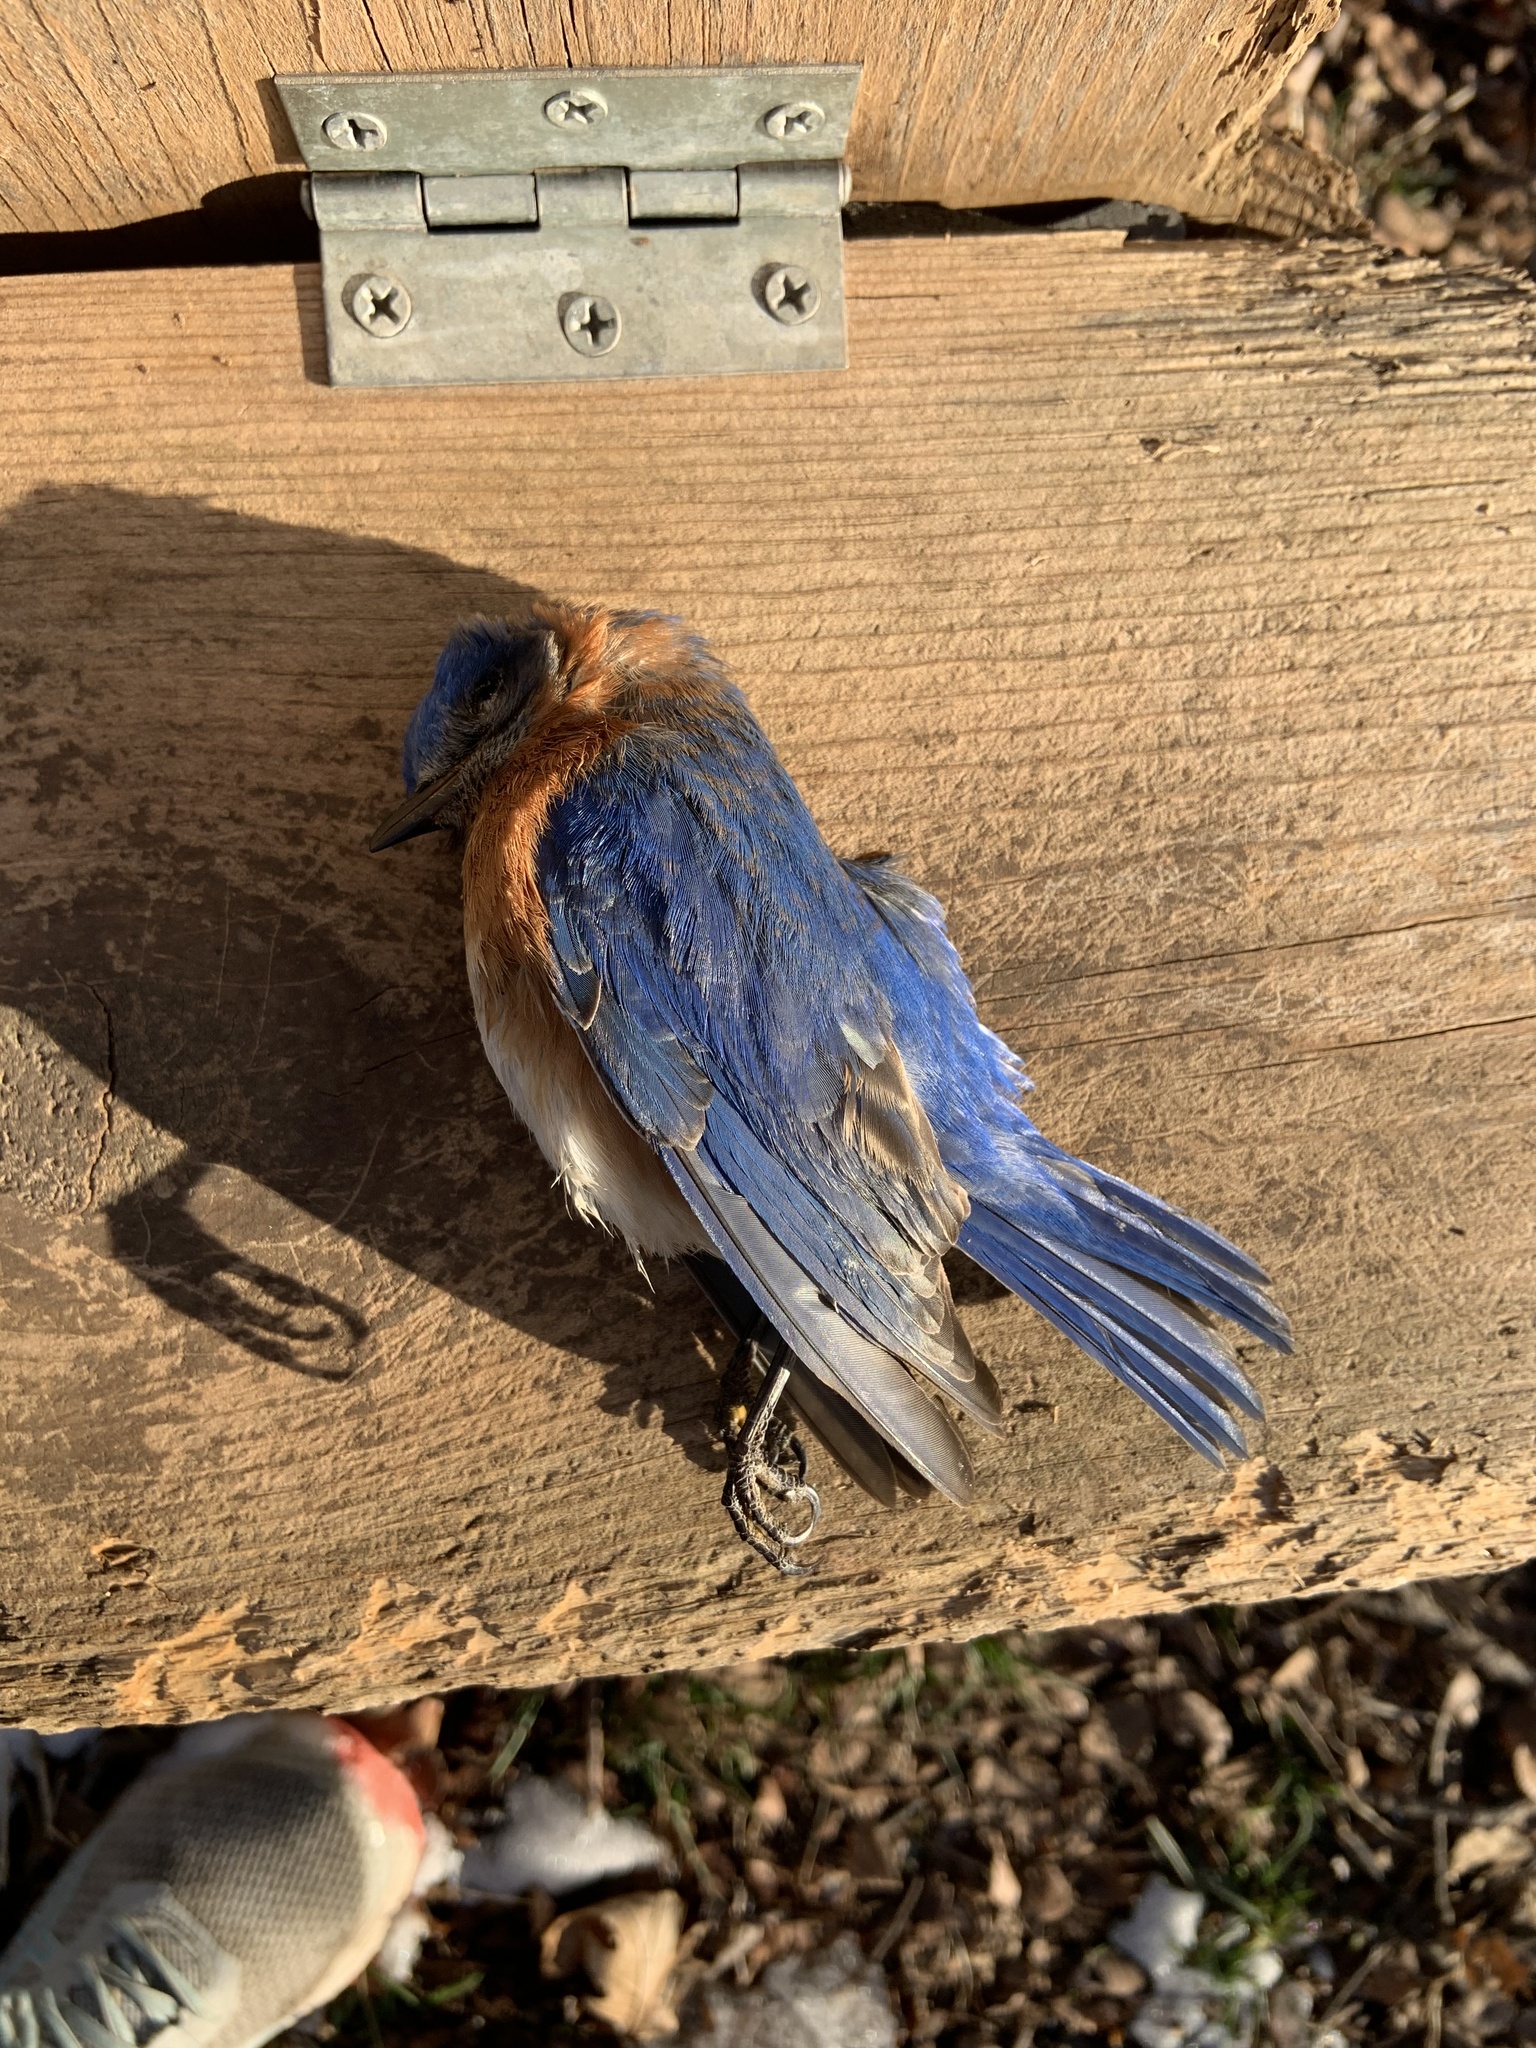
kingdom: Animalia
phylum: Chordata
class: Aves
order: Passeriformes
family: Turdidae
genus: Sialia
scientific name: Sialia sialis
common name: Eastern bluebird
